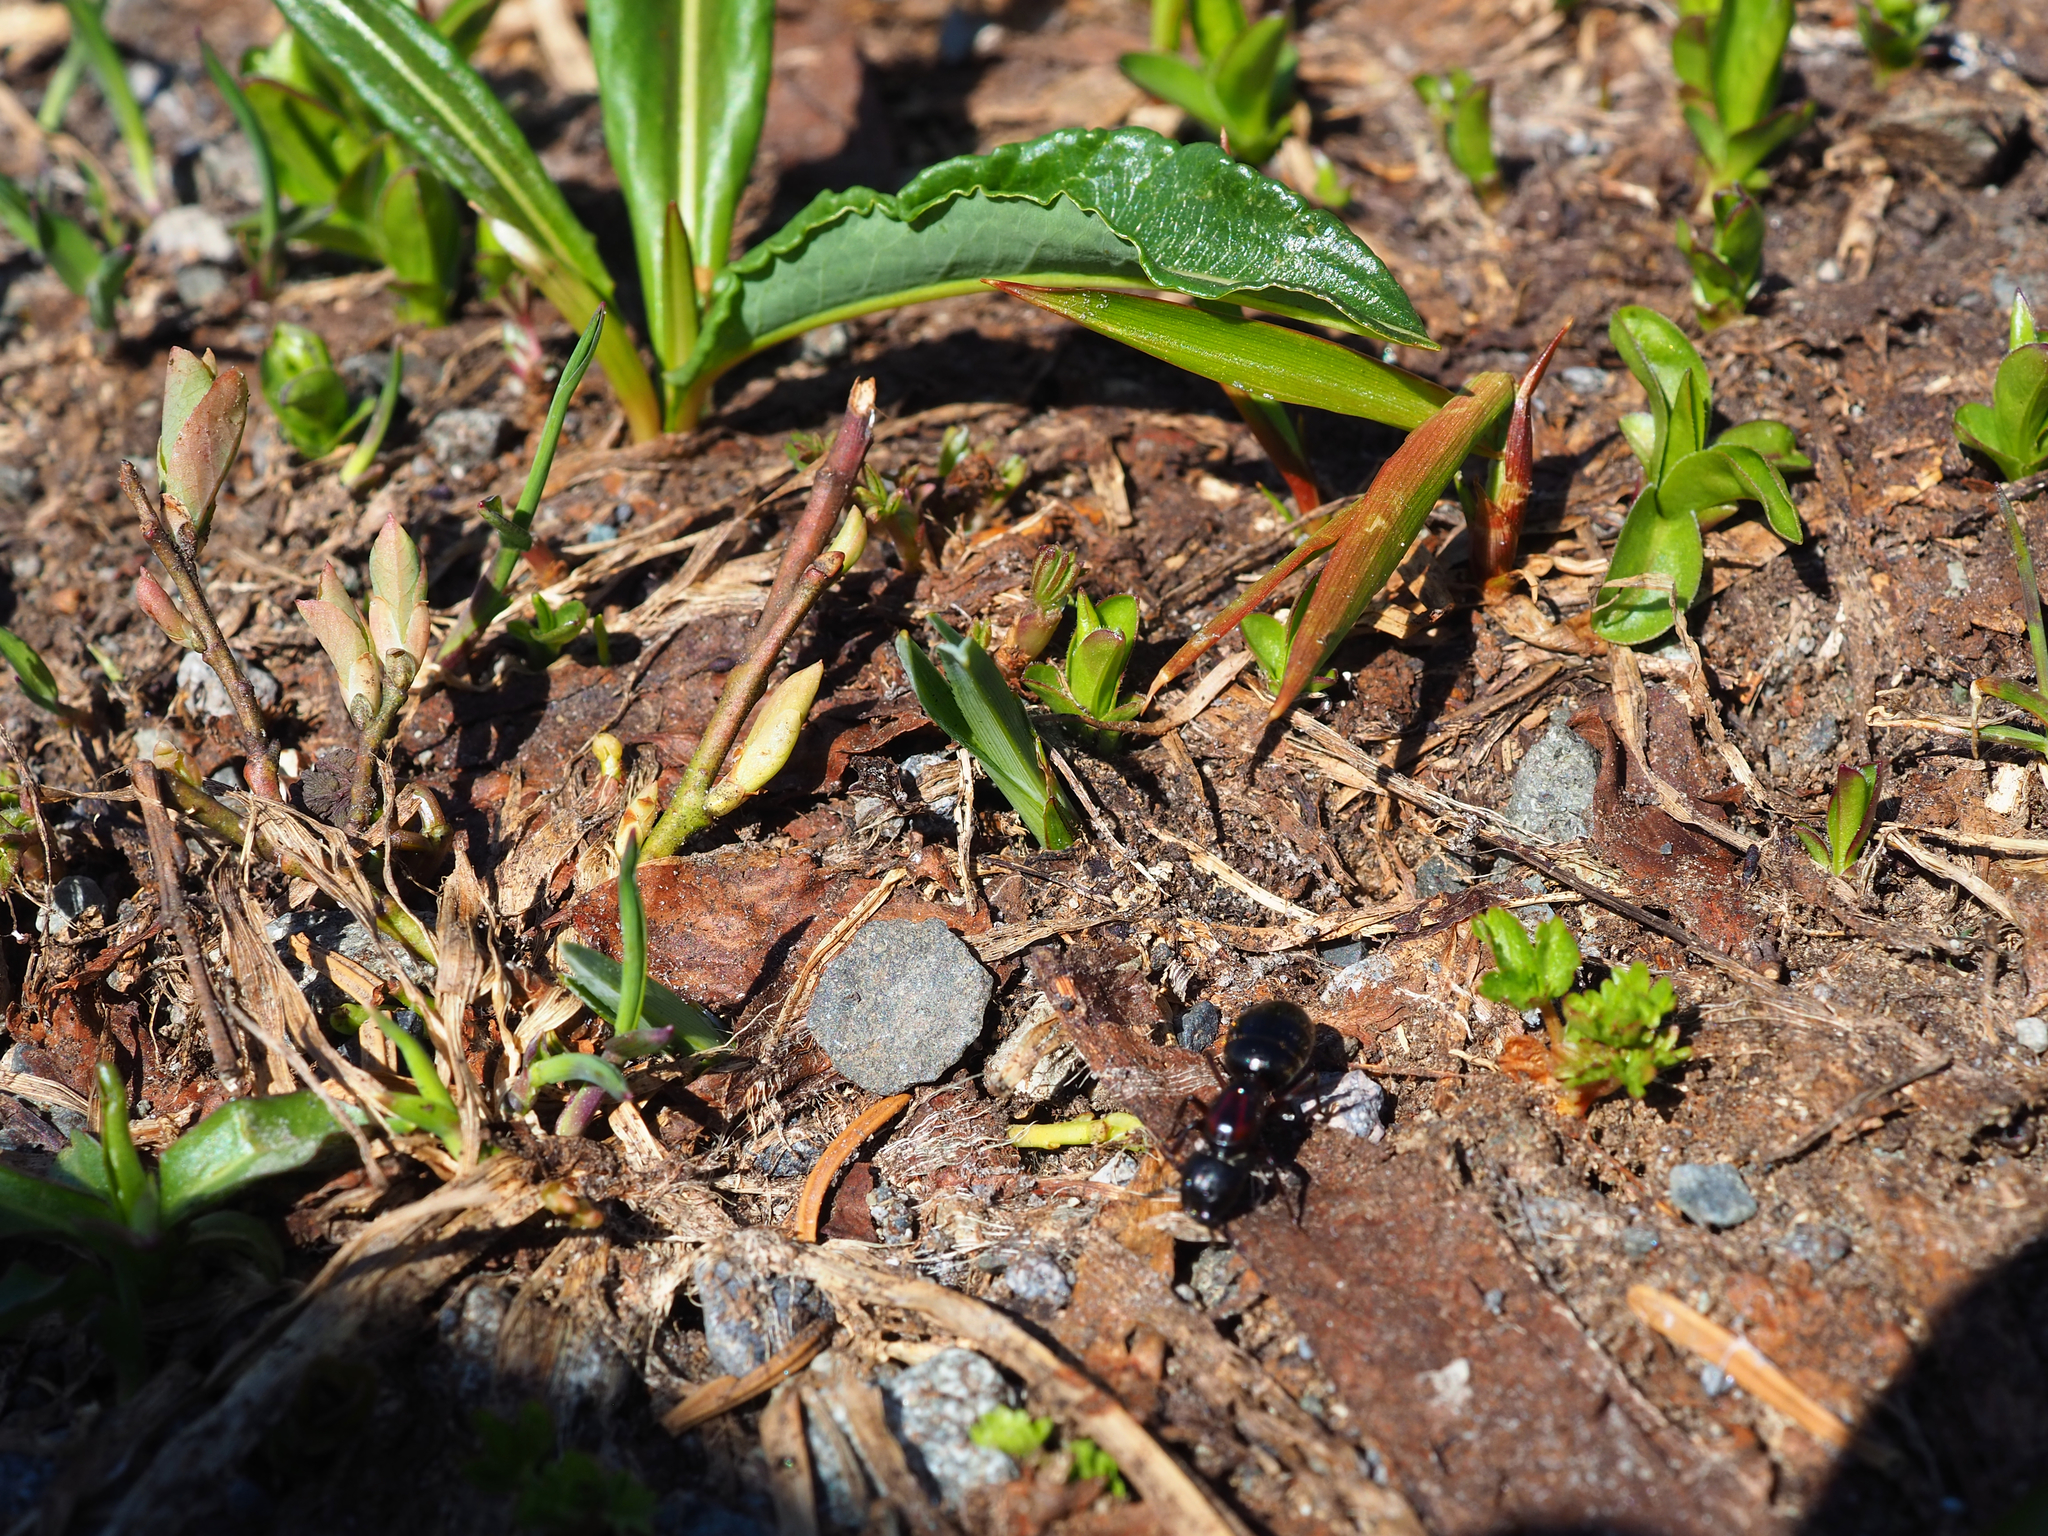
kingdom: Animalia
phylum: Arthropoda
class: Insecta
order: Hymenoptera
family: Formicidae
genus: Camponotus
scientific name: Camponotus novaeboracensis
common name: New york carpenter ant
